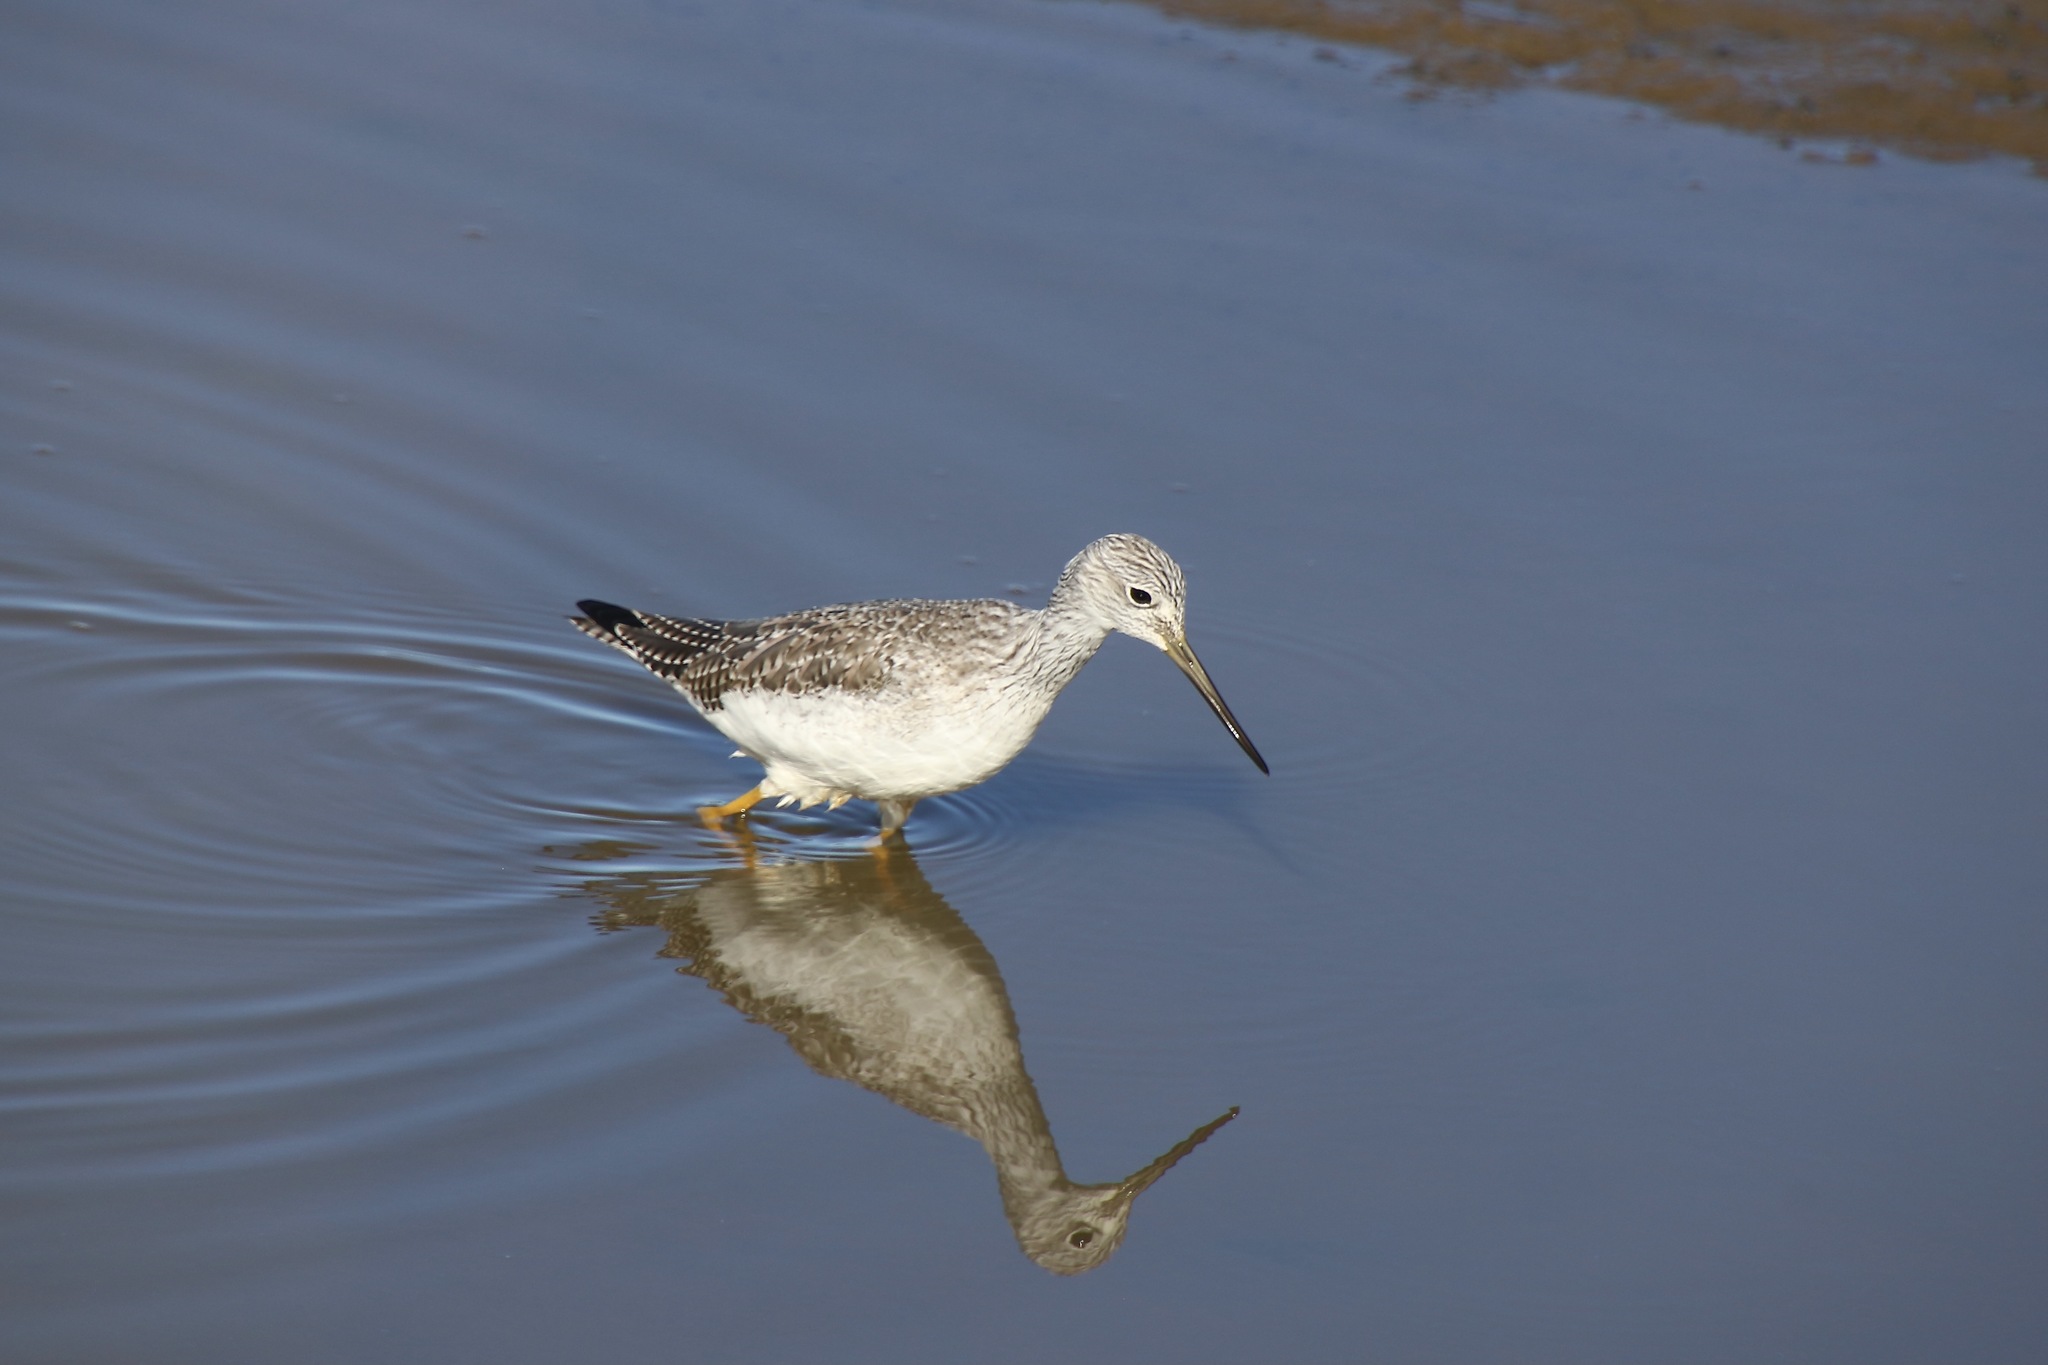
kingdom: Animalia
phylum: Chordata
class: Aves
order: Charadriiformes
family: Scolopacidae
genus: Tringa
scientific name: Tringa melanoleuca
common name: Greater yellowlegs
